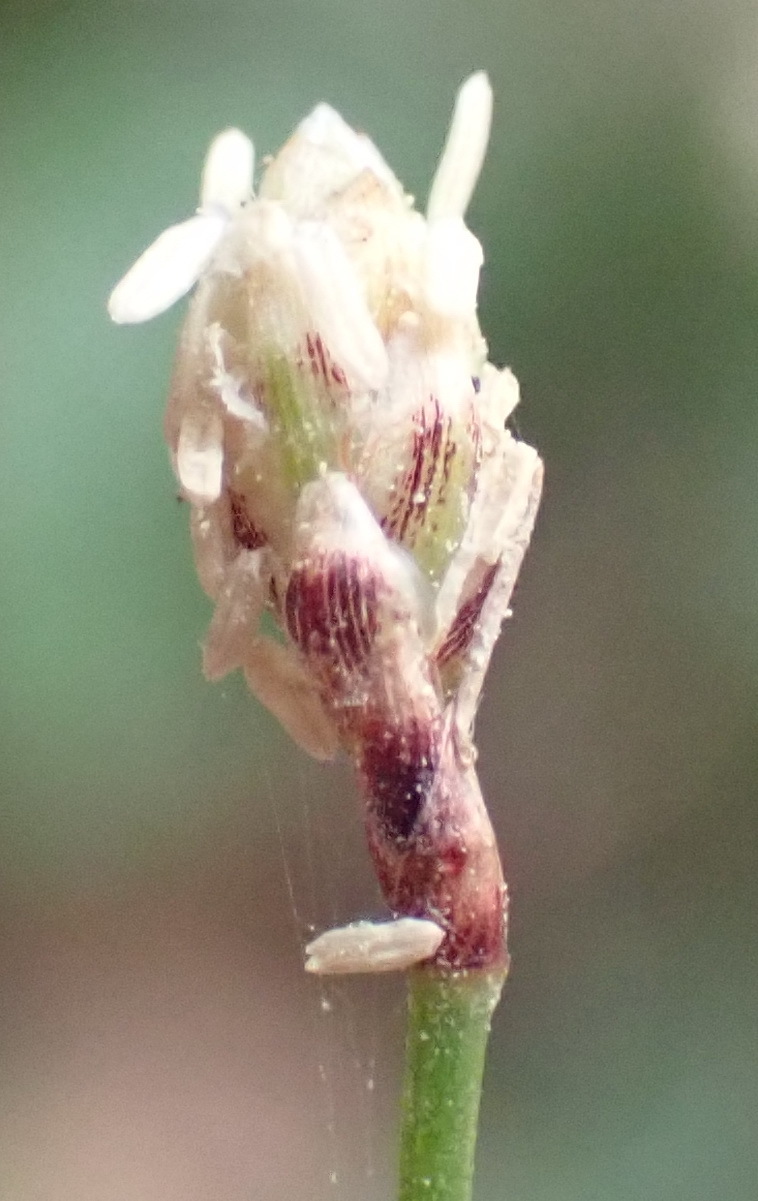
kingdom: Plantae
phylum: Tracheophyta
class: Liliopsida
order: Poales
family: Cyperaceae
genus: Ficinia
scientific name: Ficinia fascicularis
